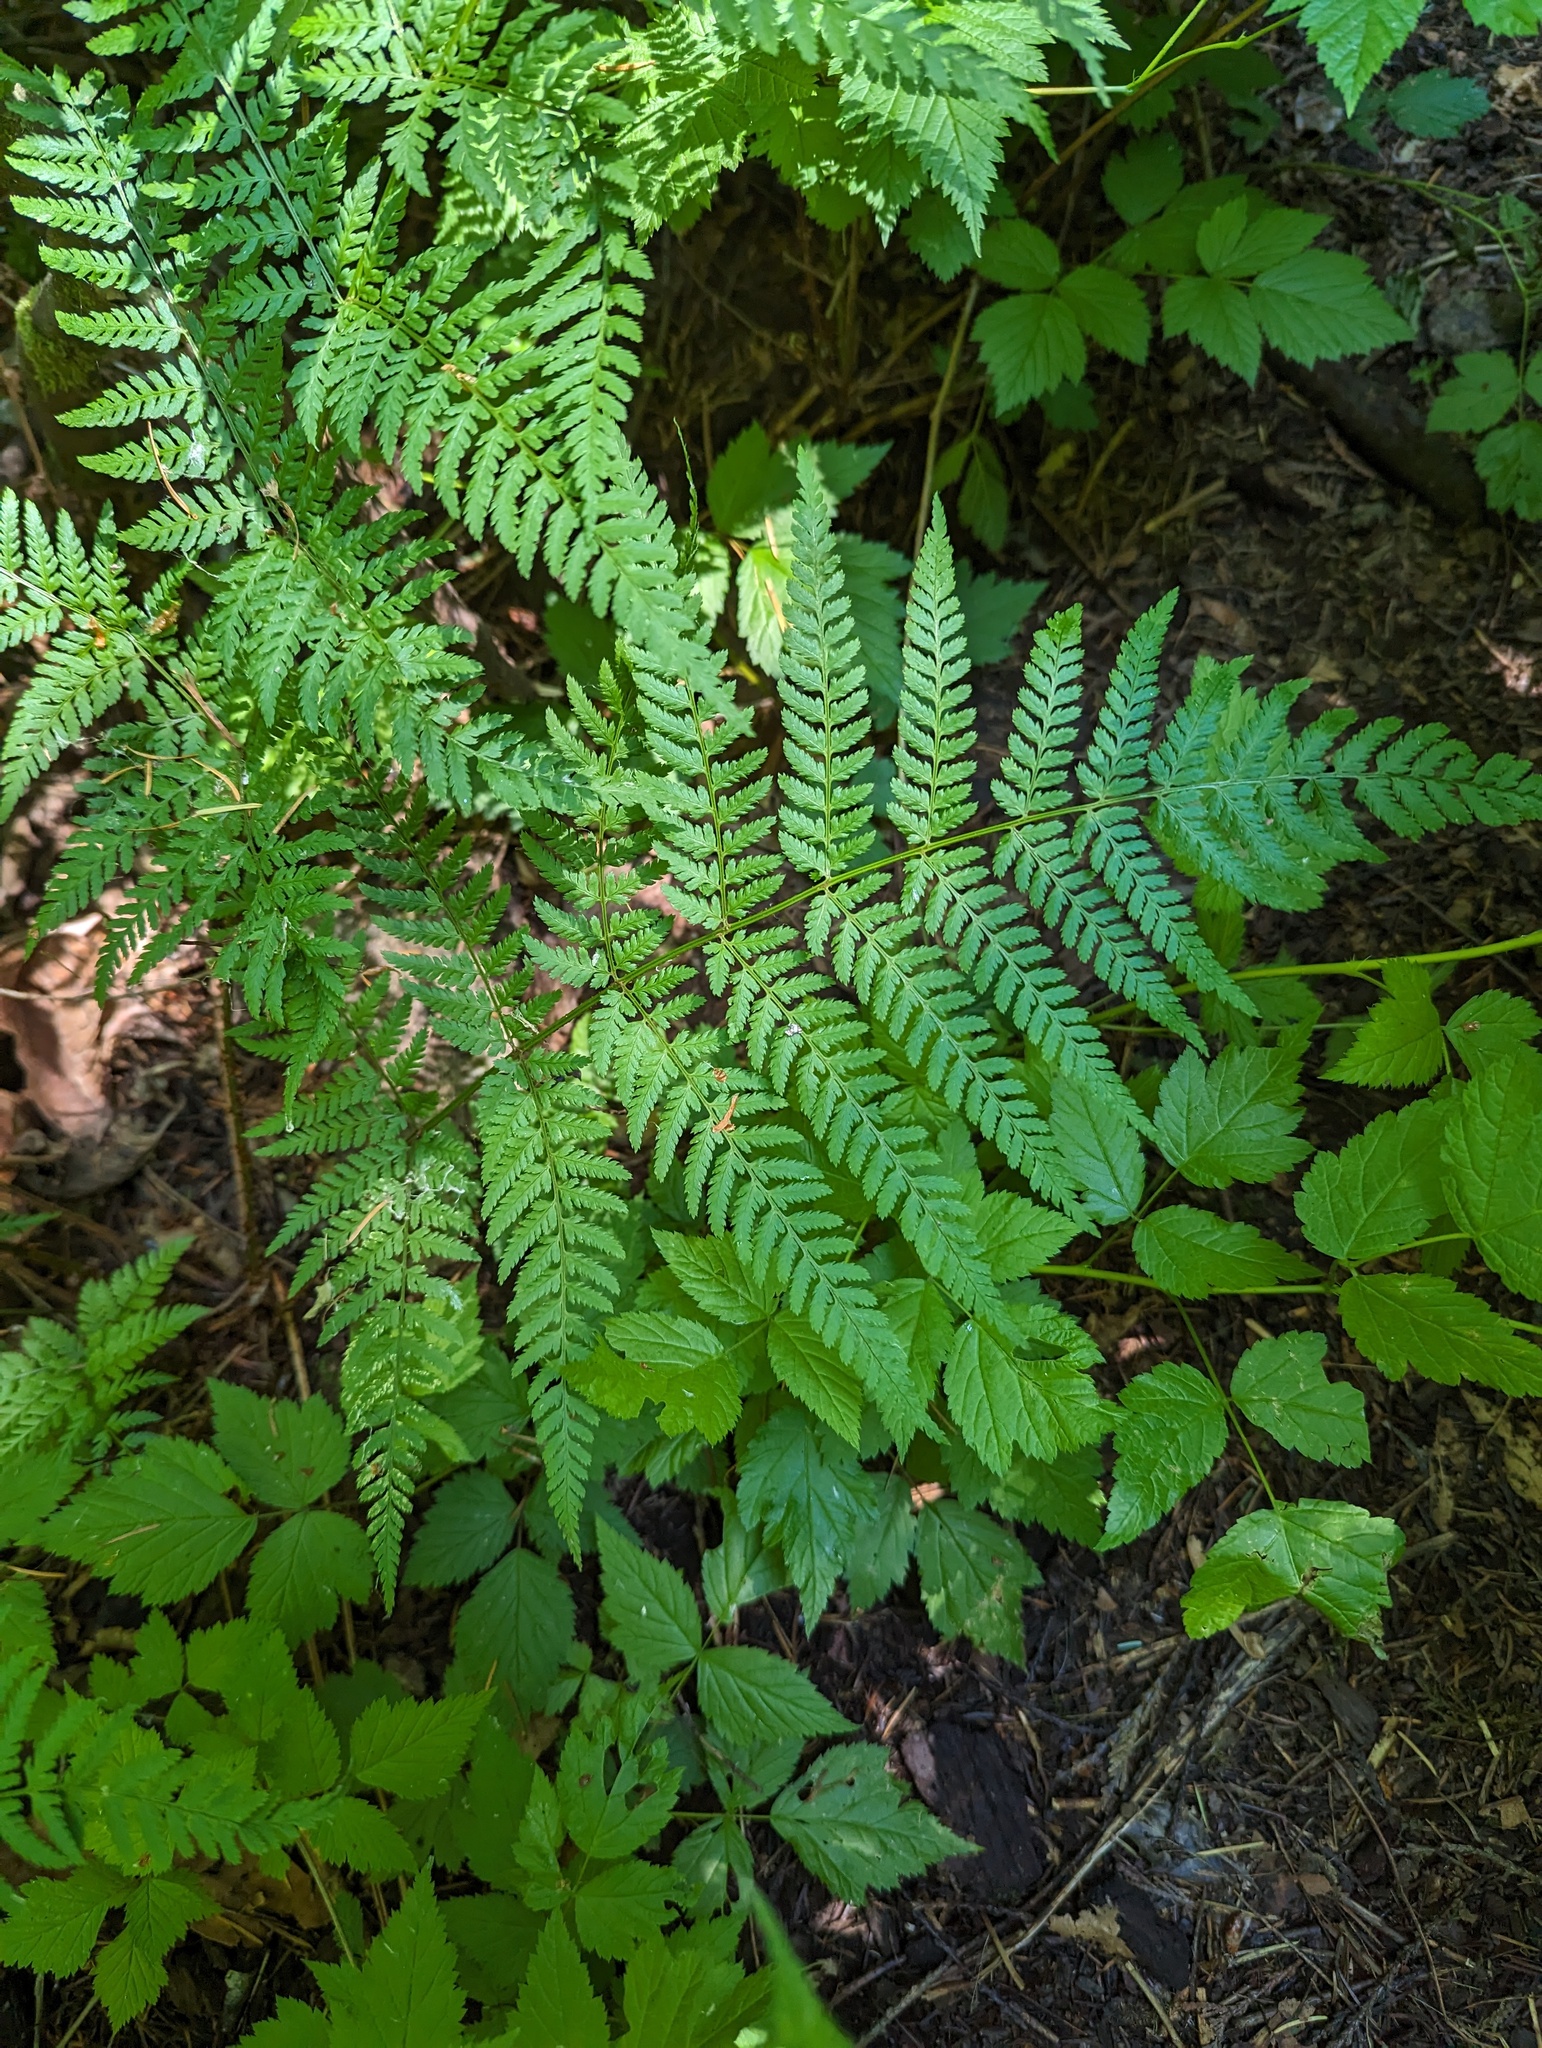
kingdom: Plantae
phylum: Tracheophyta
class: Polypodiopsida
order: Polypodiales
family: Dryopteridaceae
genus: Dryopteris
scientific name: Dryopteris expansa
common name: Northern buckler fern
